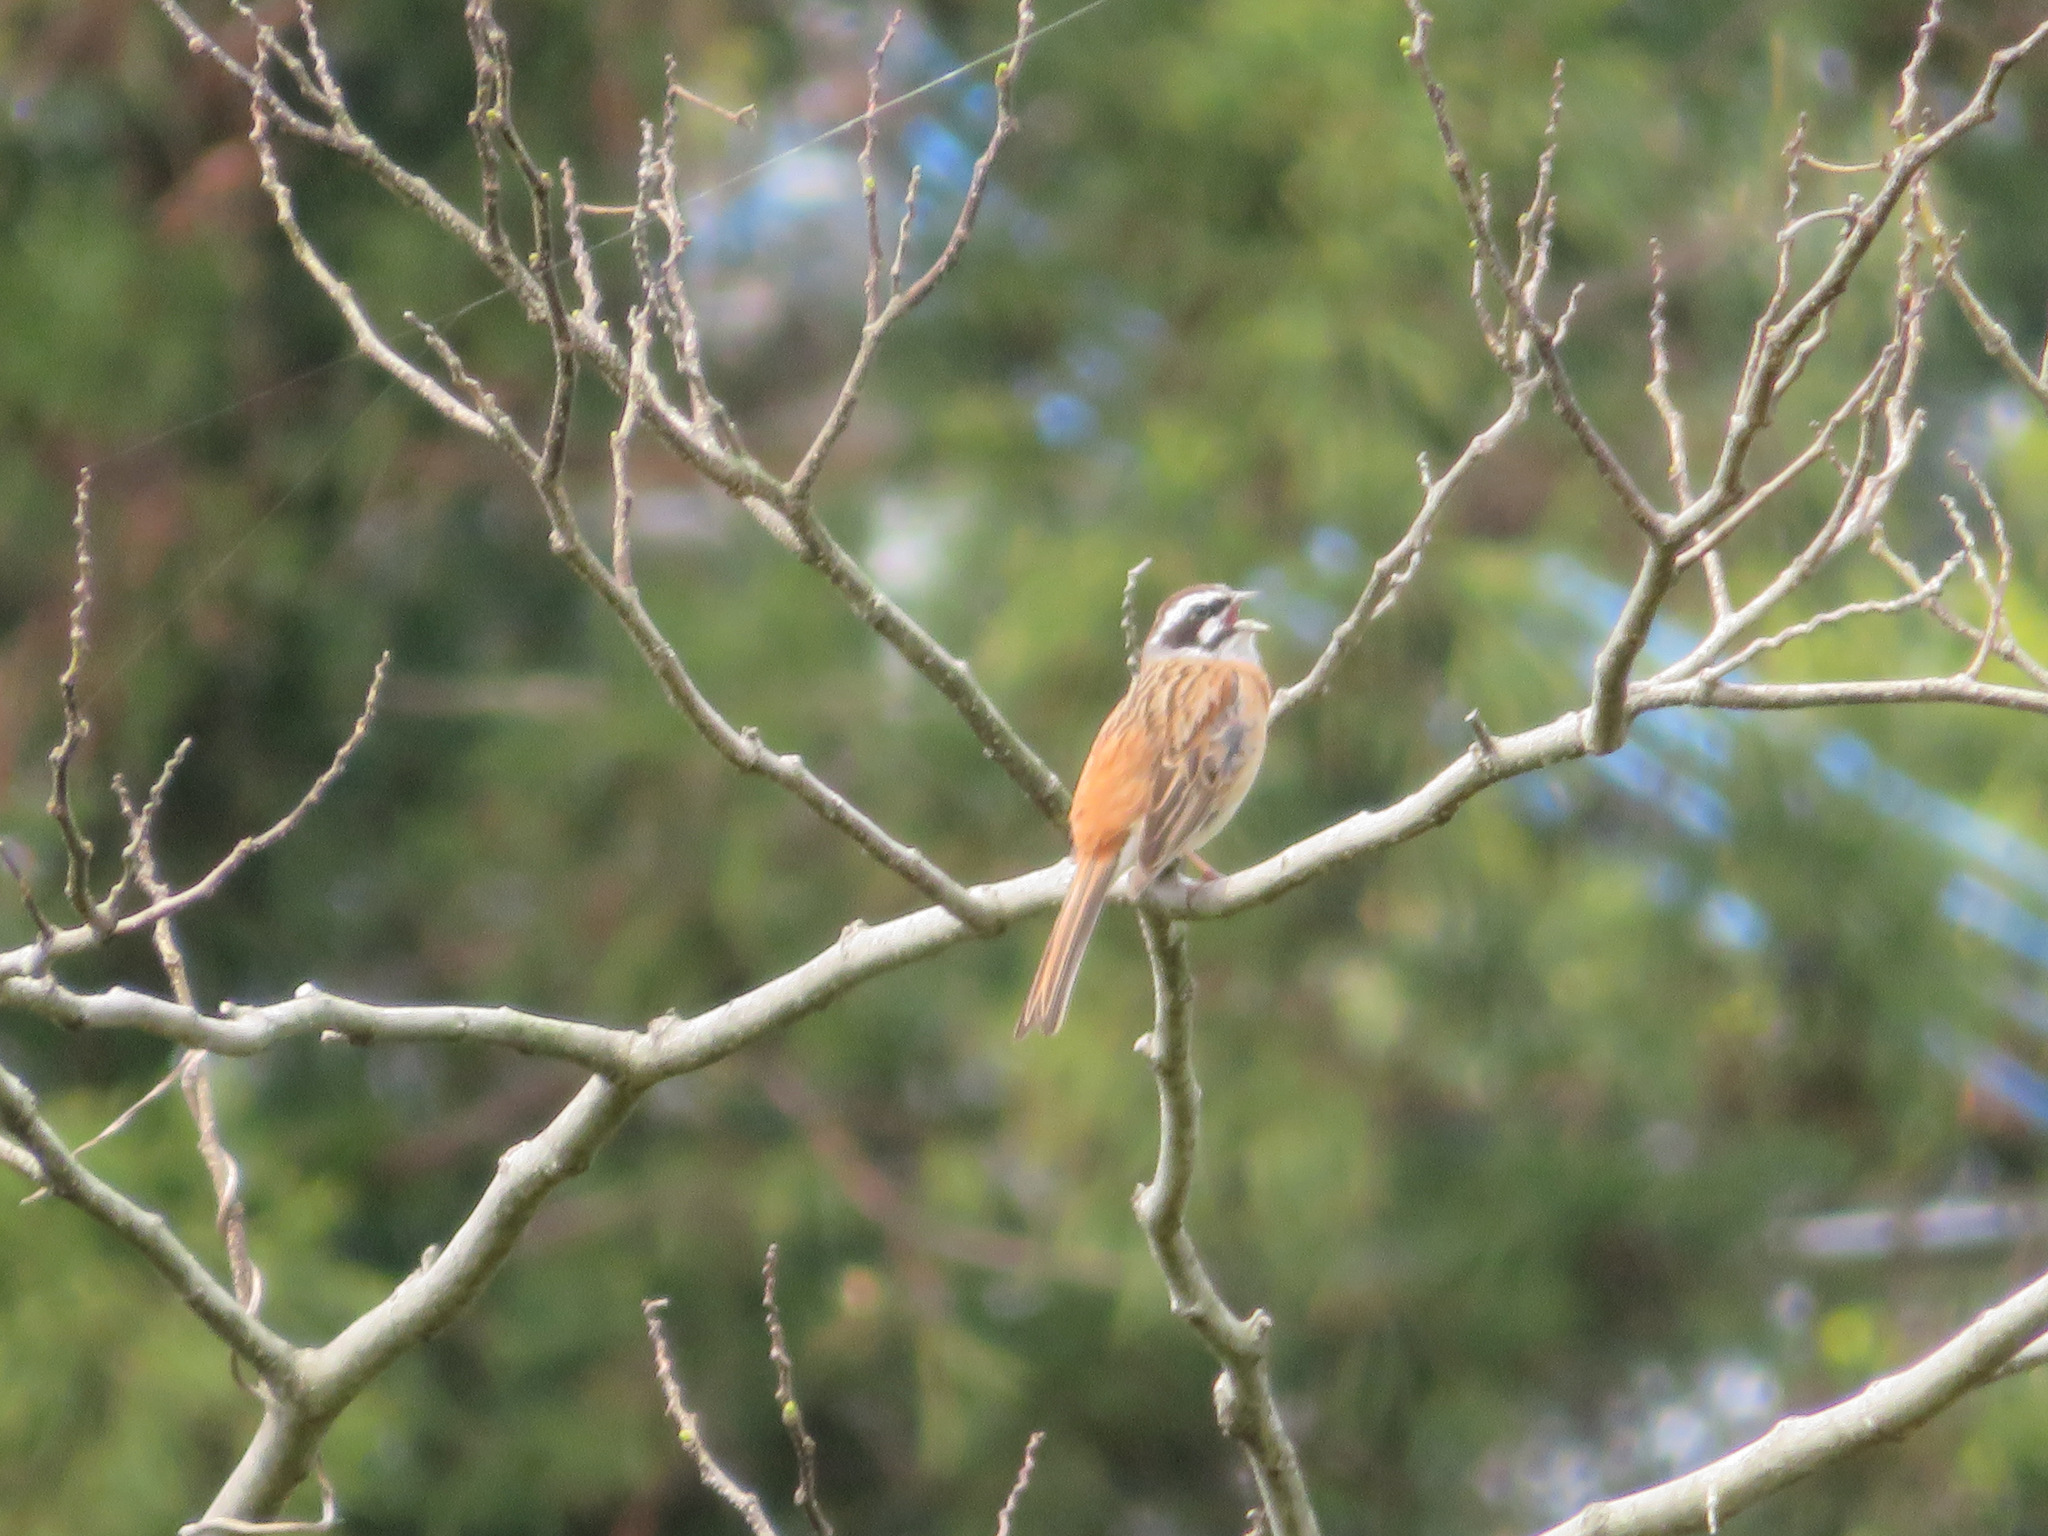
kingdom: Animalia
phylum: Chordata
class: Aves
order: Passeriformes
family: Emberizidae
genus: Emberiza
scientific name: Emberiza cioides
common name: Meadow bunting
